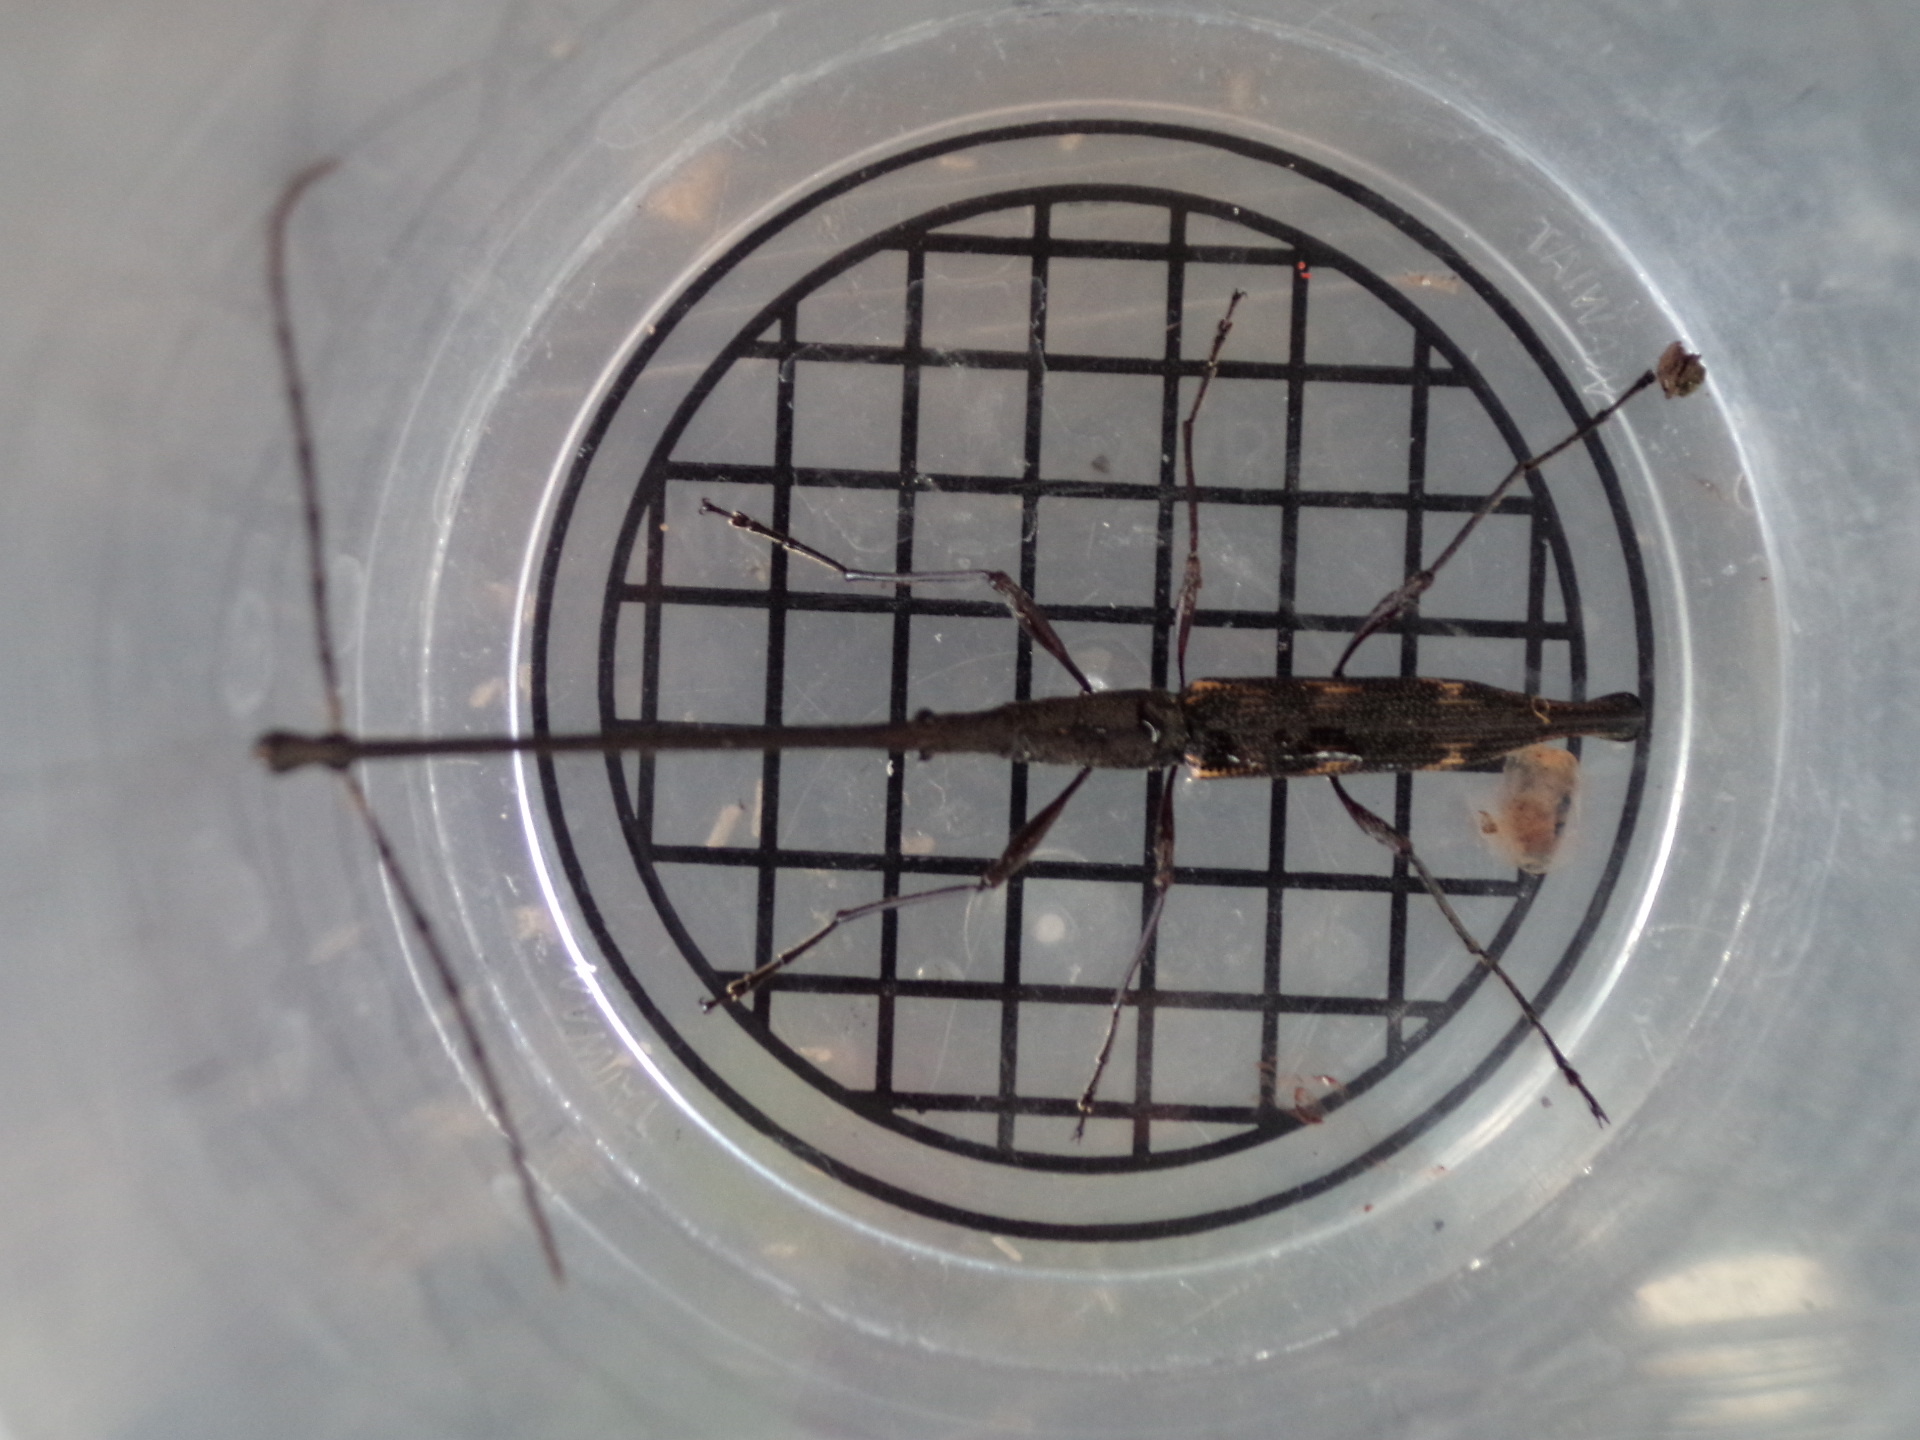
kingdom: Animalia
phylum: Arthropoda
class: Insecta
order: Coleoptera
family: Brentidae
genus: Lasiorhynchus
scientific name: Lasiorhynchus barbicornis
